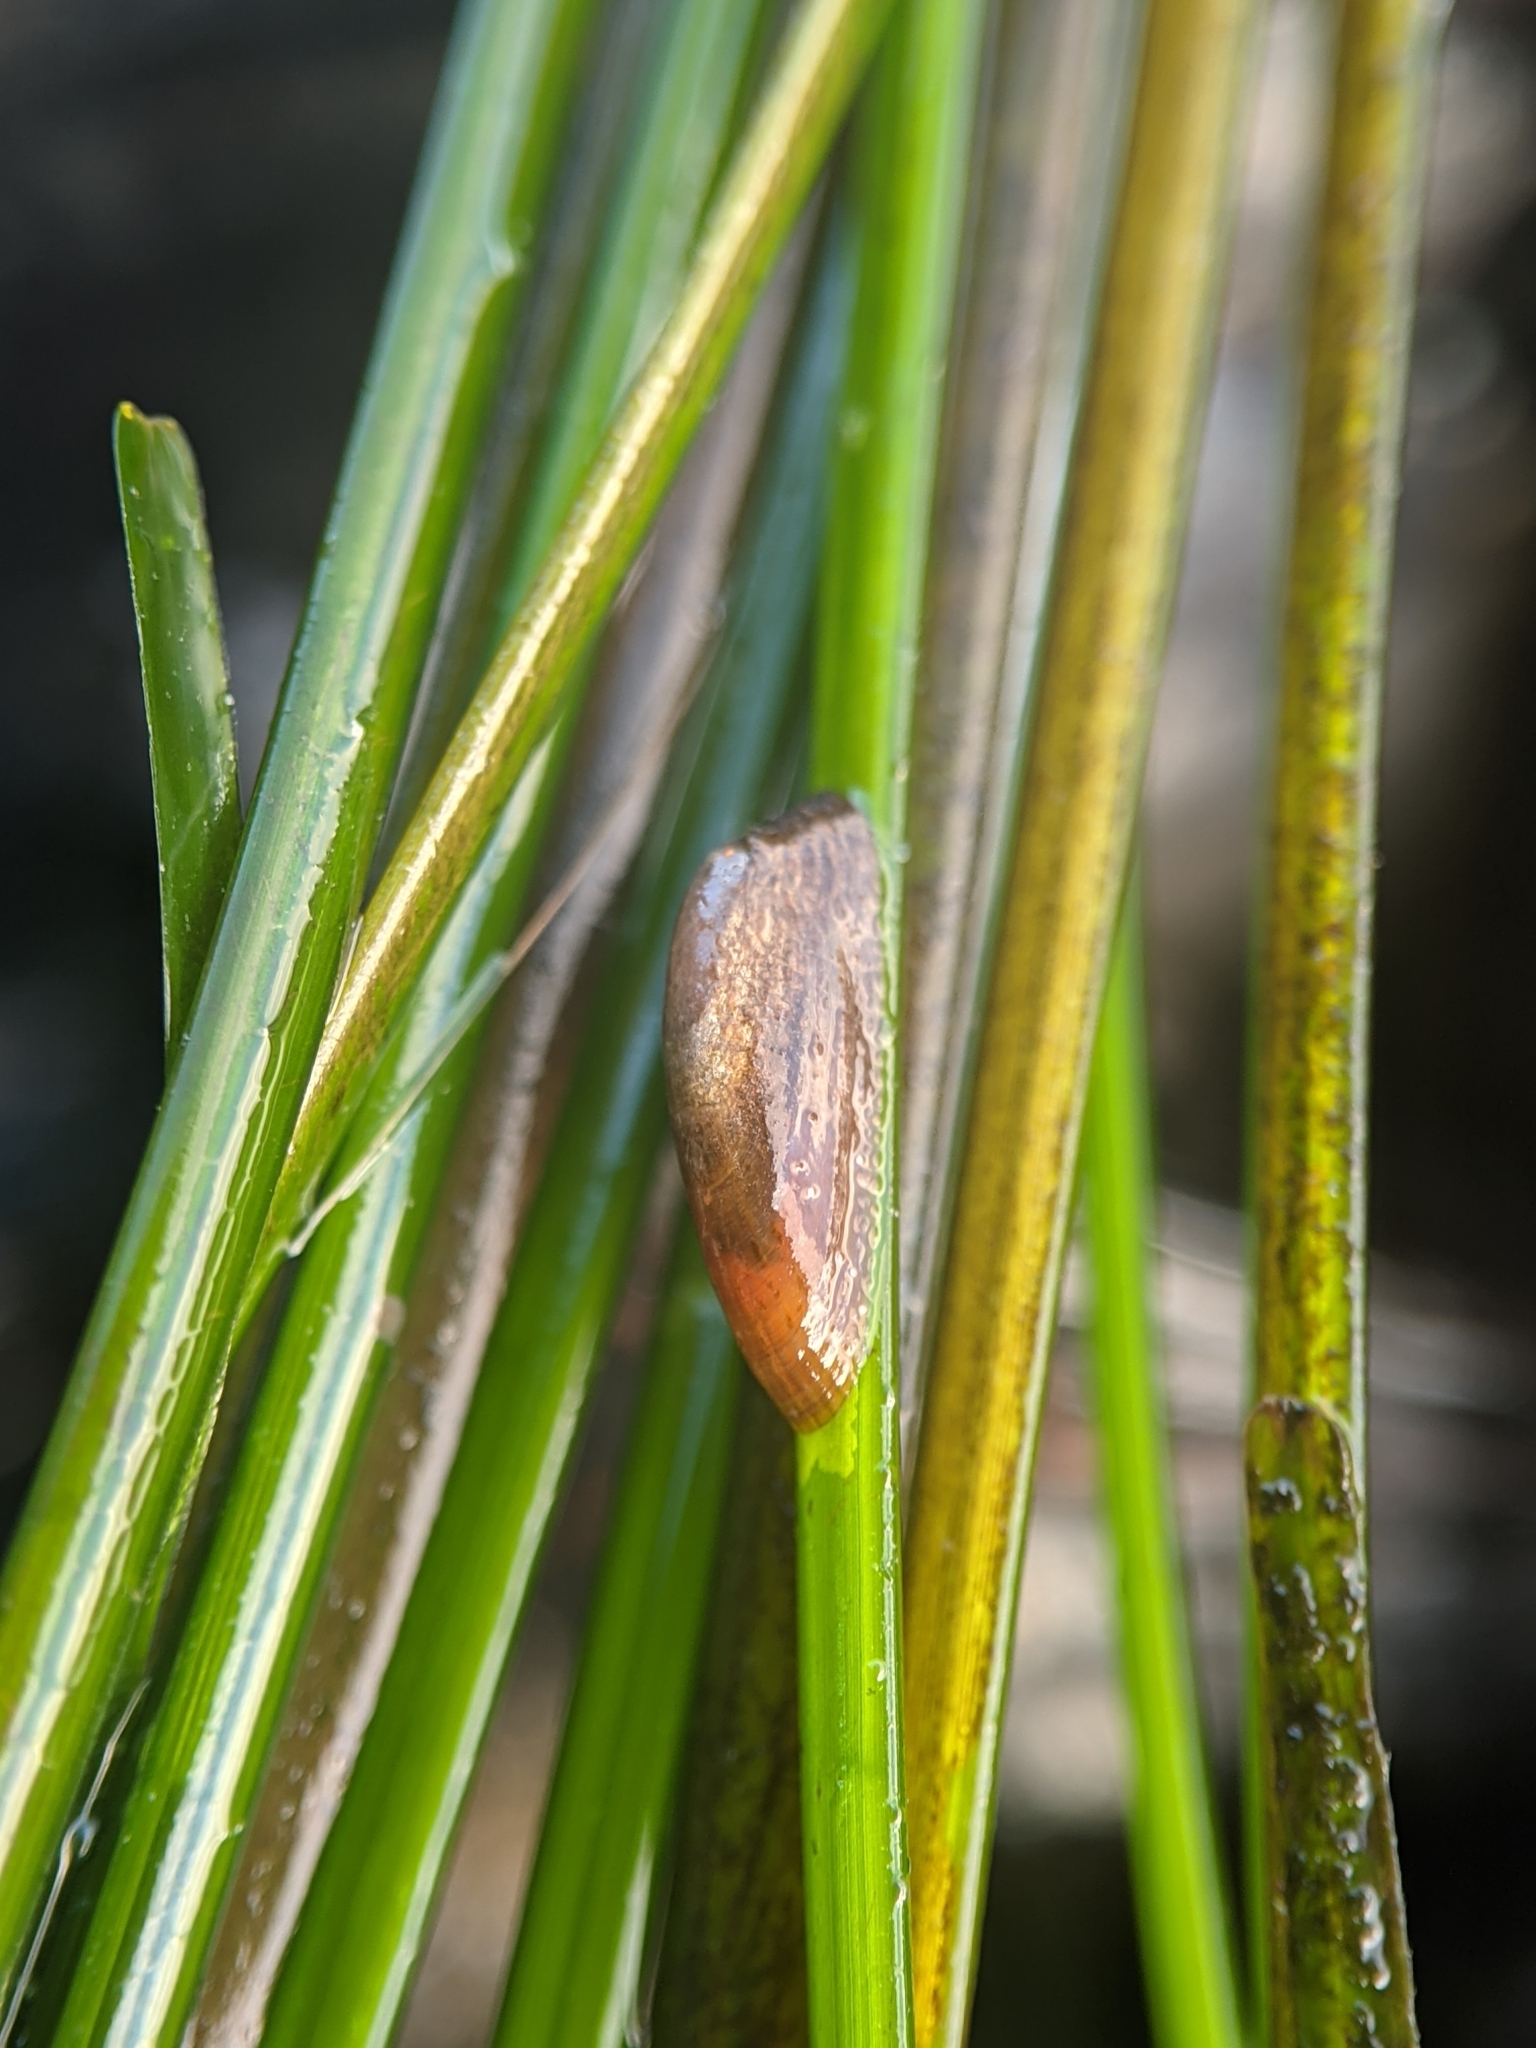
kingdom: Animalia
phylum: Mollusca
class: Gastropoda
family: Lottiidae
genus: Tectura
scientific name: Tectura paleacea
